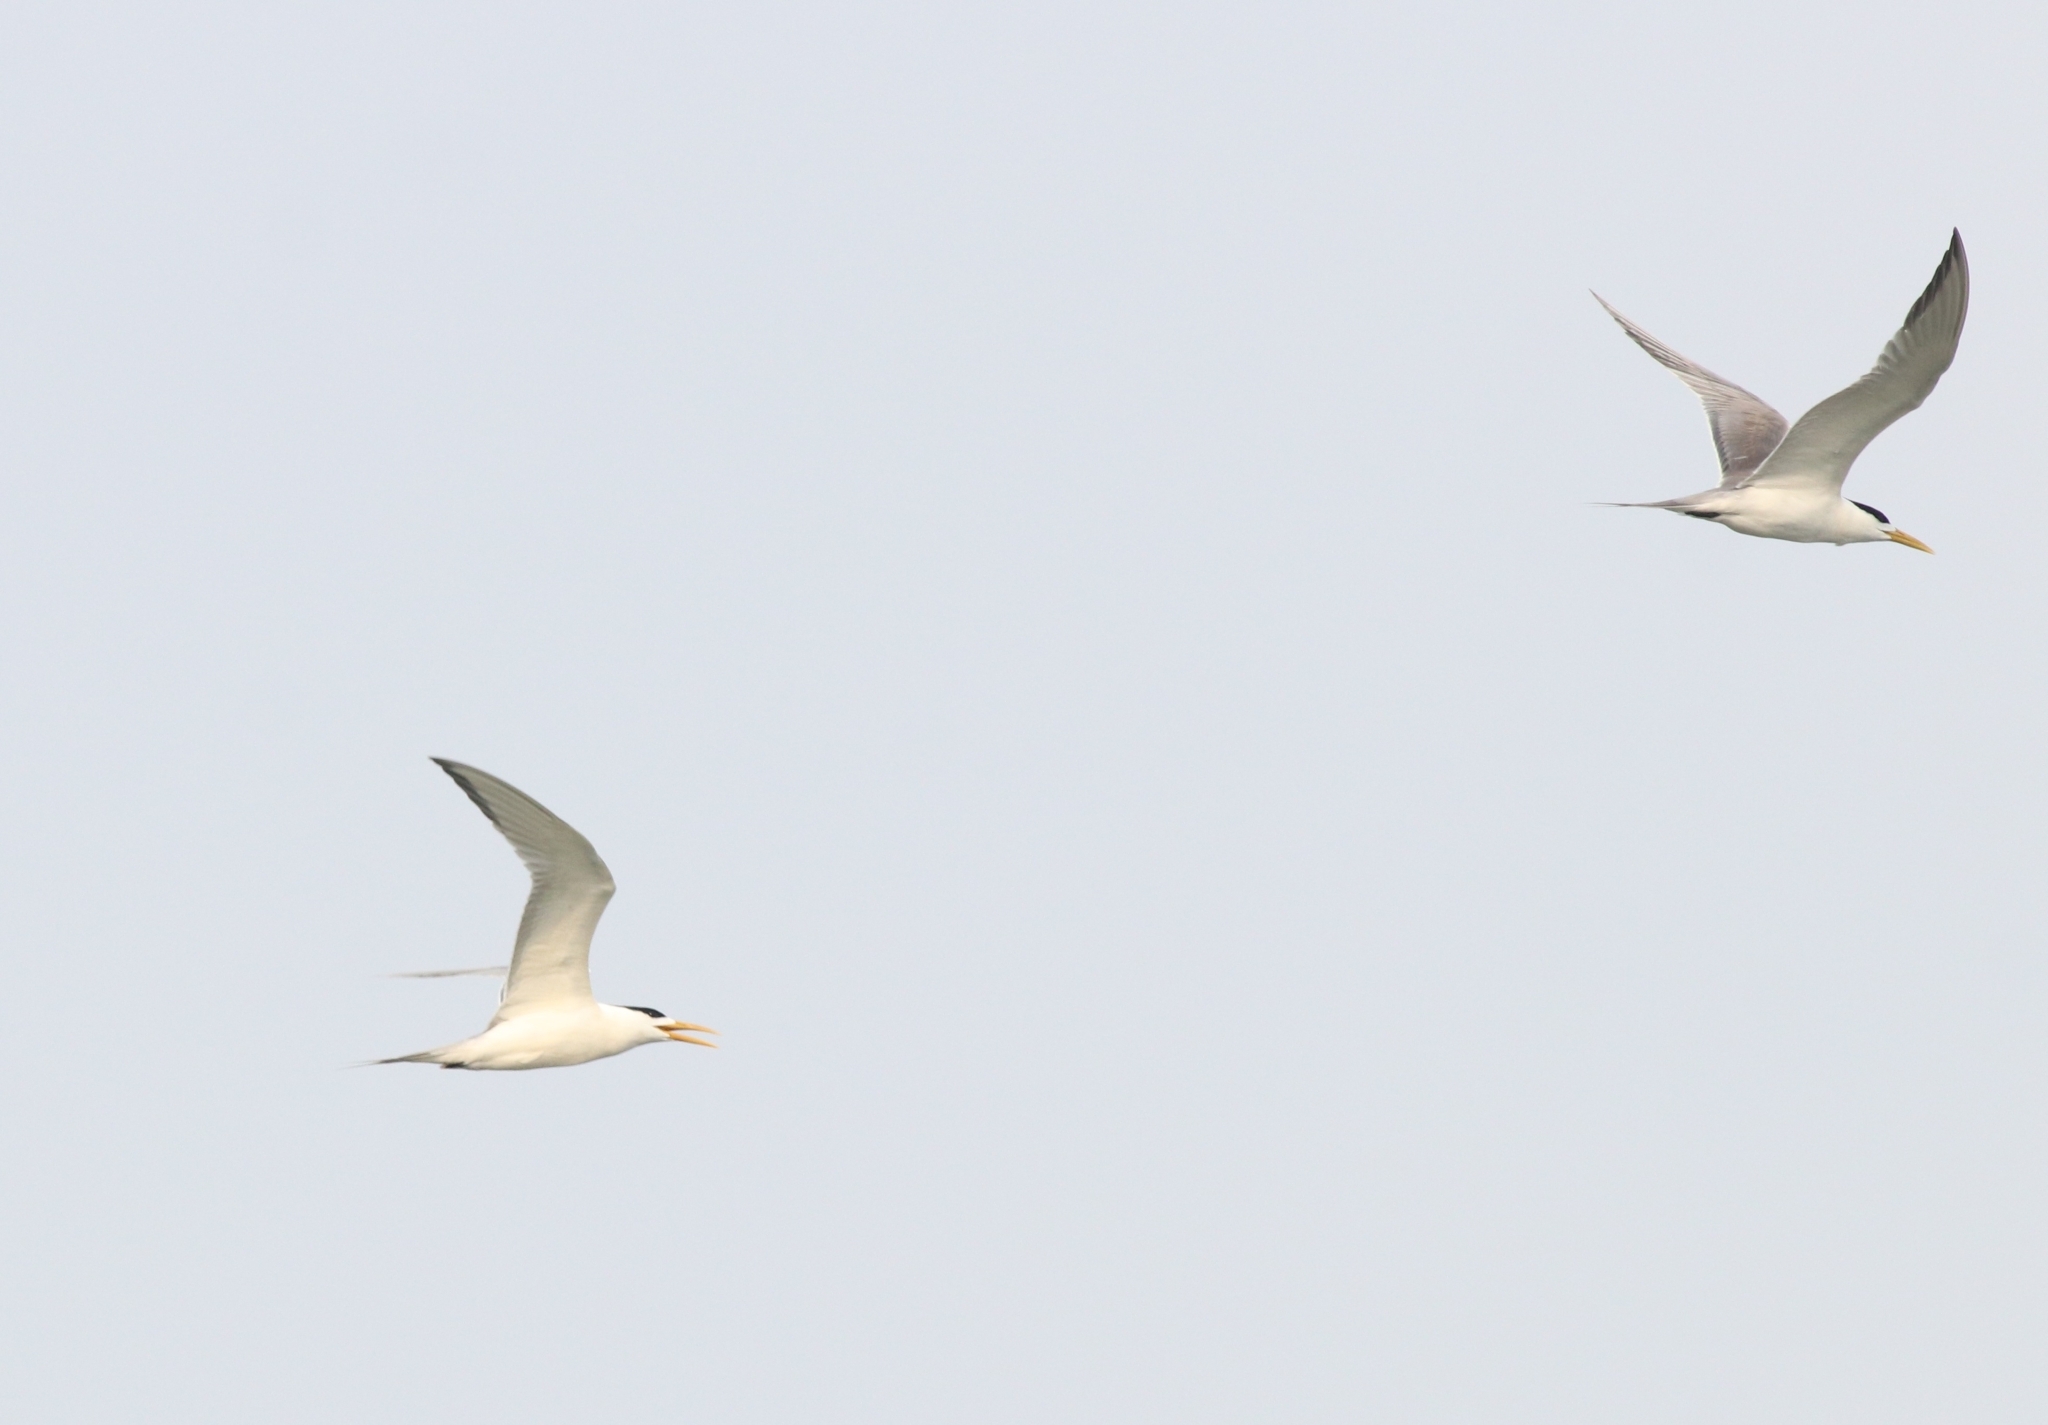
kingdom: Animalia
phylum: Chordata
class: Aves
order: Charadriiformes
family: Laridae
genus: Thalasseus
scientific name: Thalasseus bengalensis
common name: Lesser crested tern
